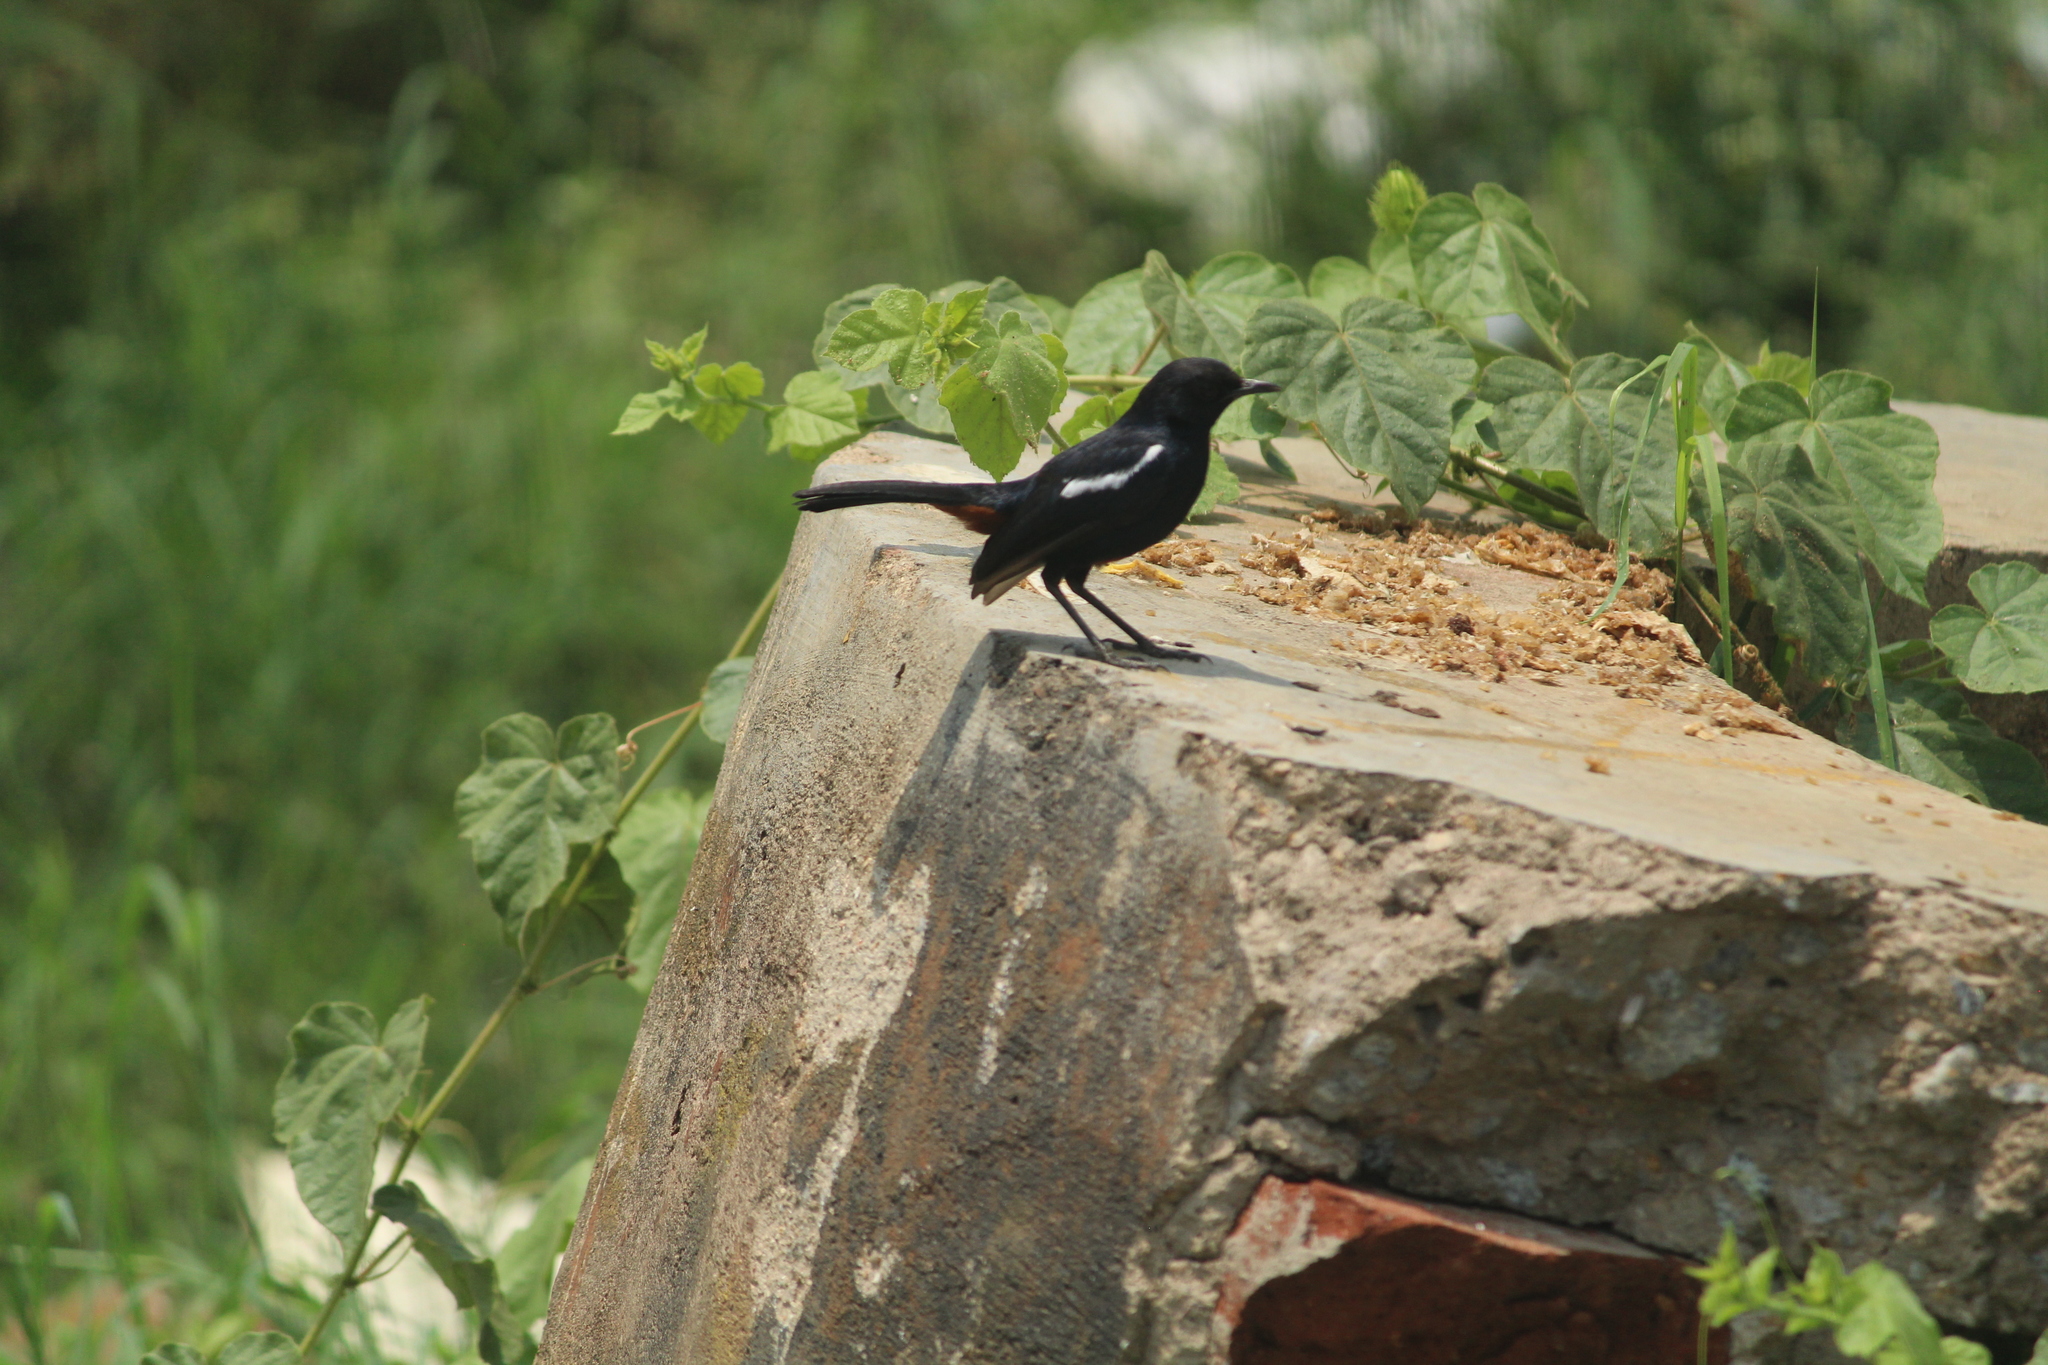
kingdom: Animalia
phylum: Chordata
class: Aves
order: Passeriformes
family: Muscicapidae
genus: Saxicoloides
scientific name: Saxicoloides fulicatus
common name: Indian robin
